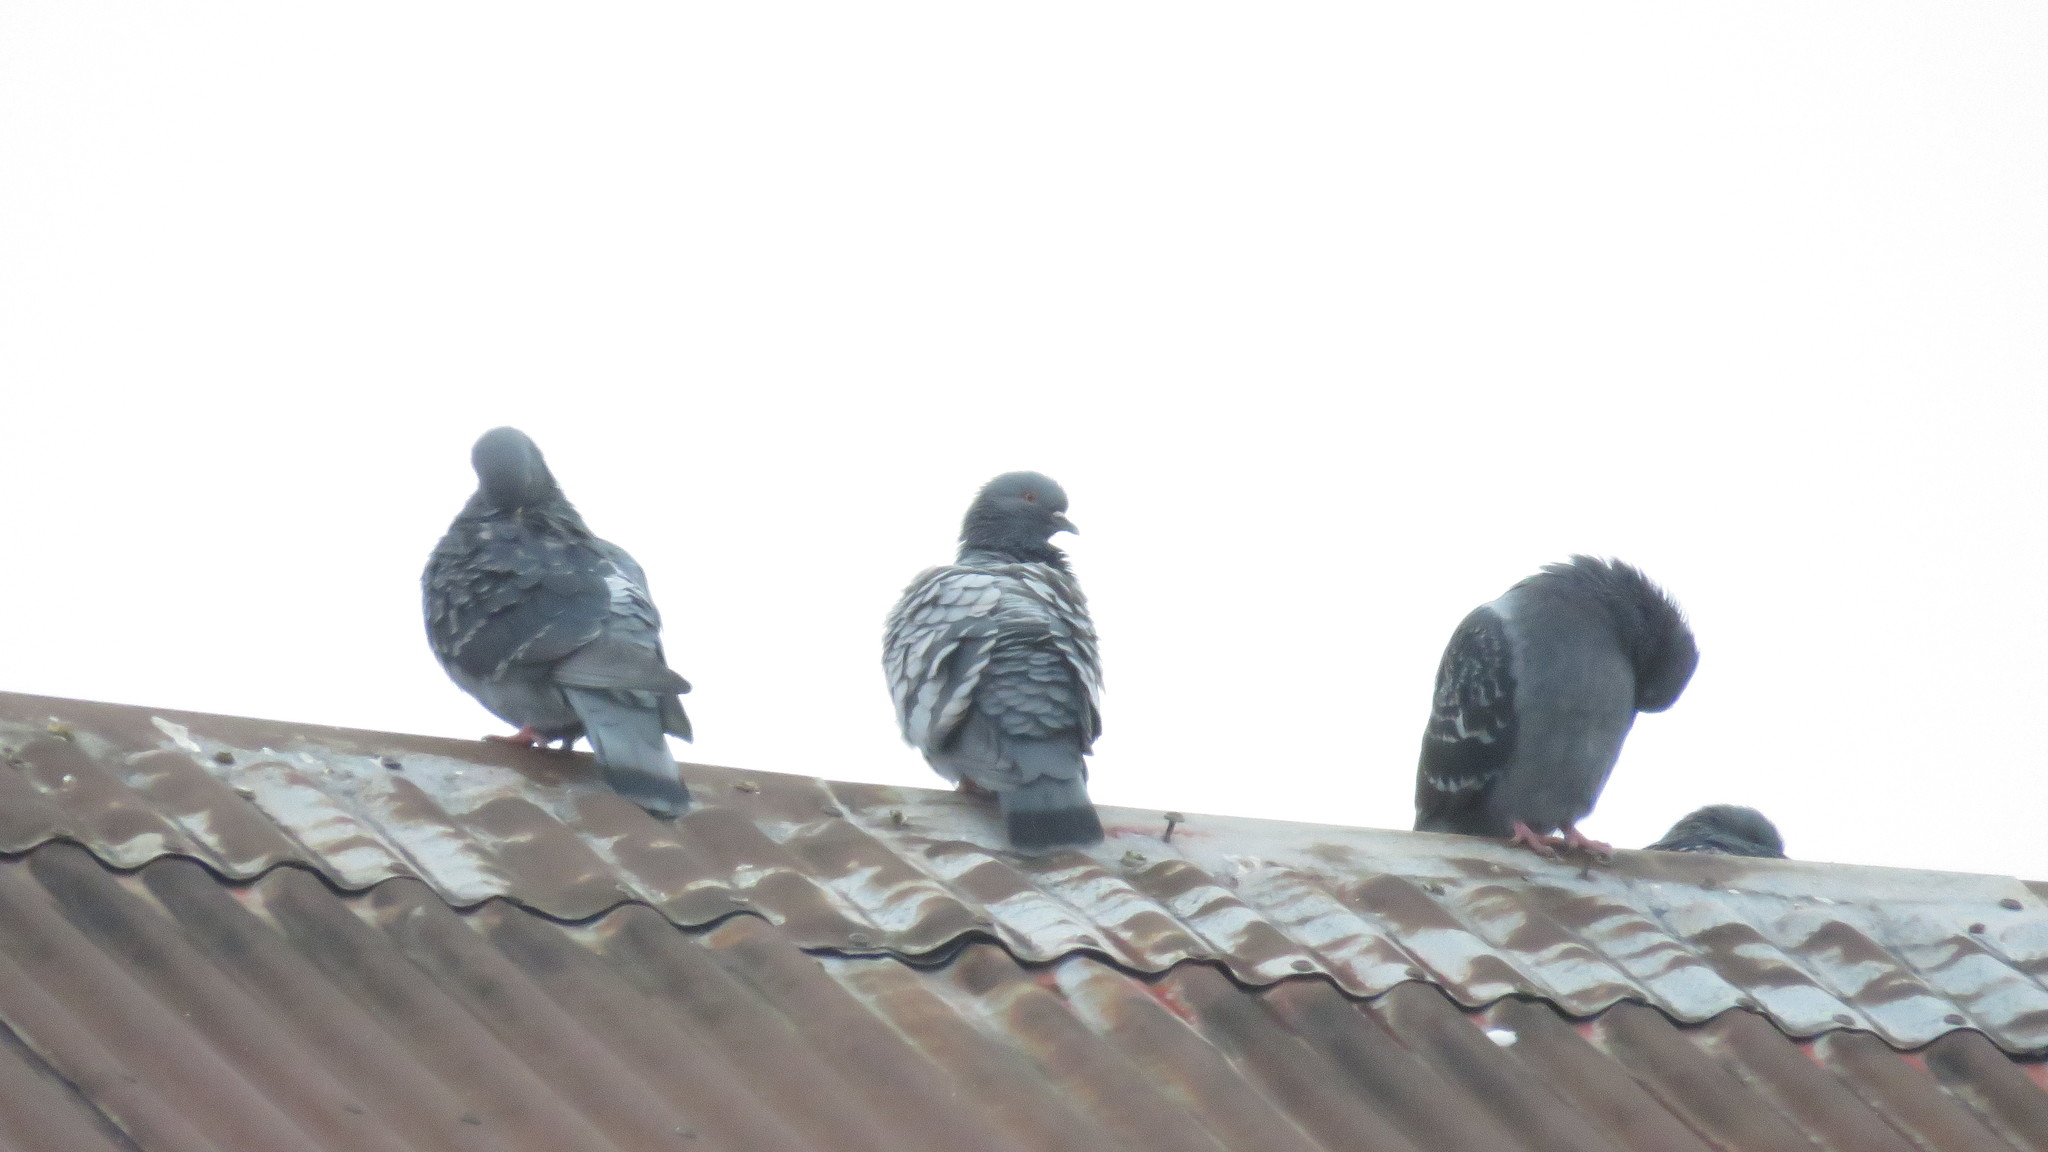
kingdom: Animalia
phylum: Chordata
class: Aves
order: Columbiformes
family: Columbidae
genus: Columba
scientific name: Columba livia
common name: Rock pigeon
